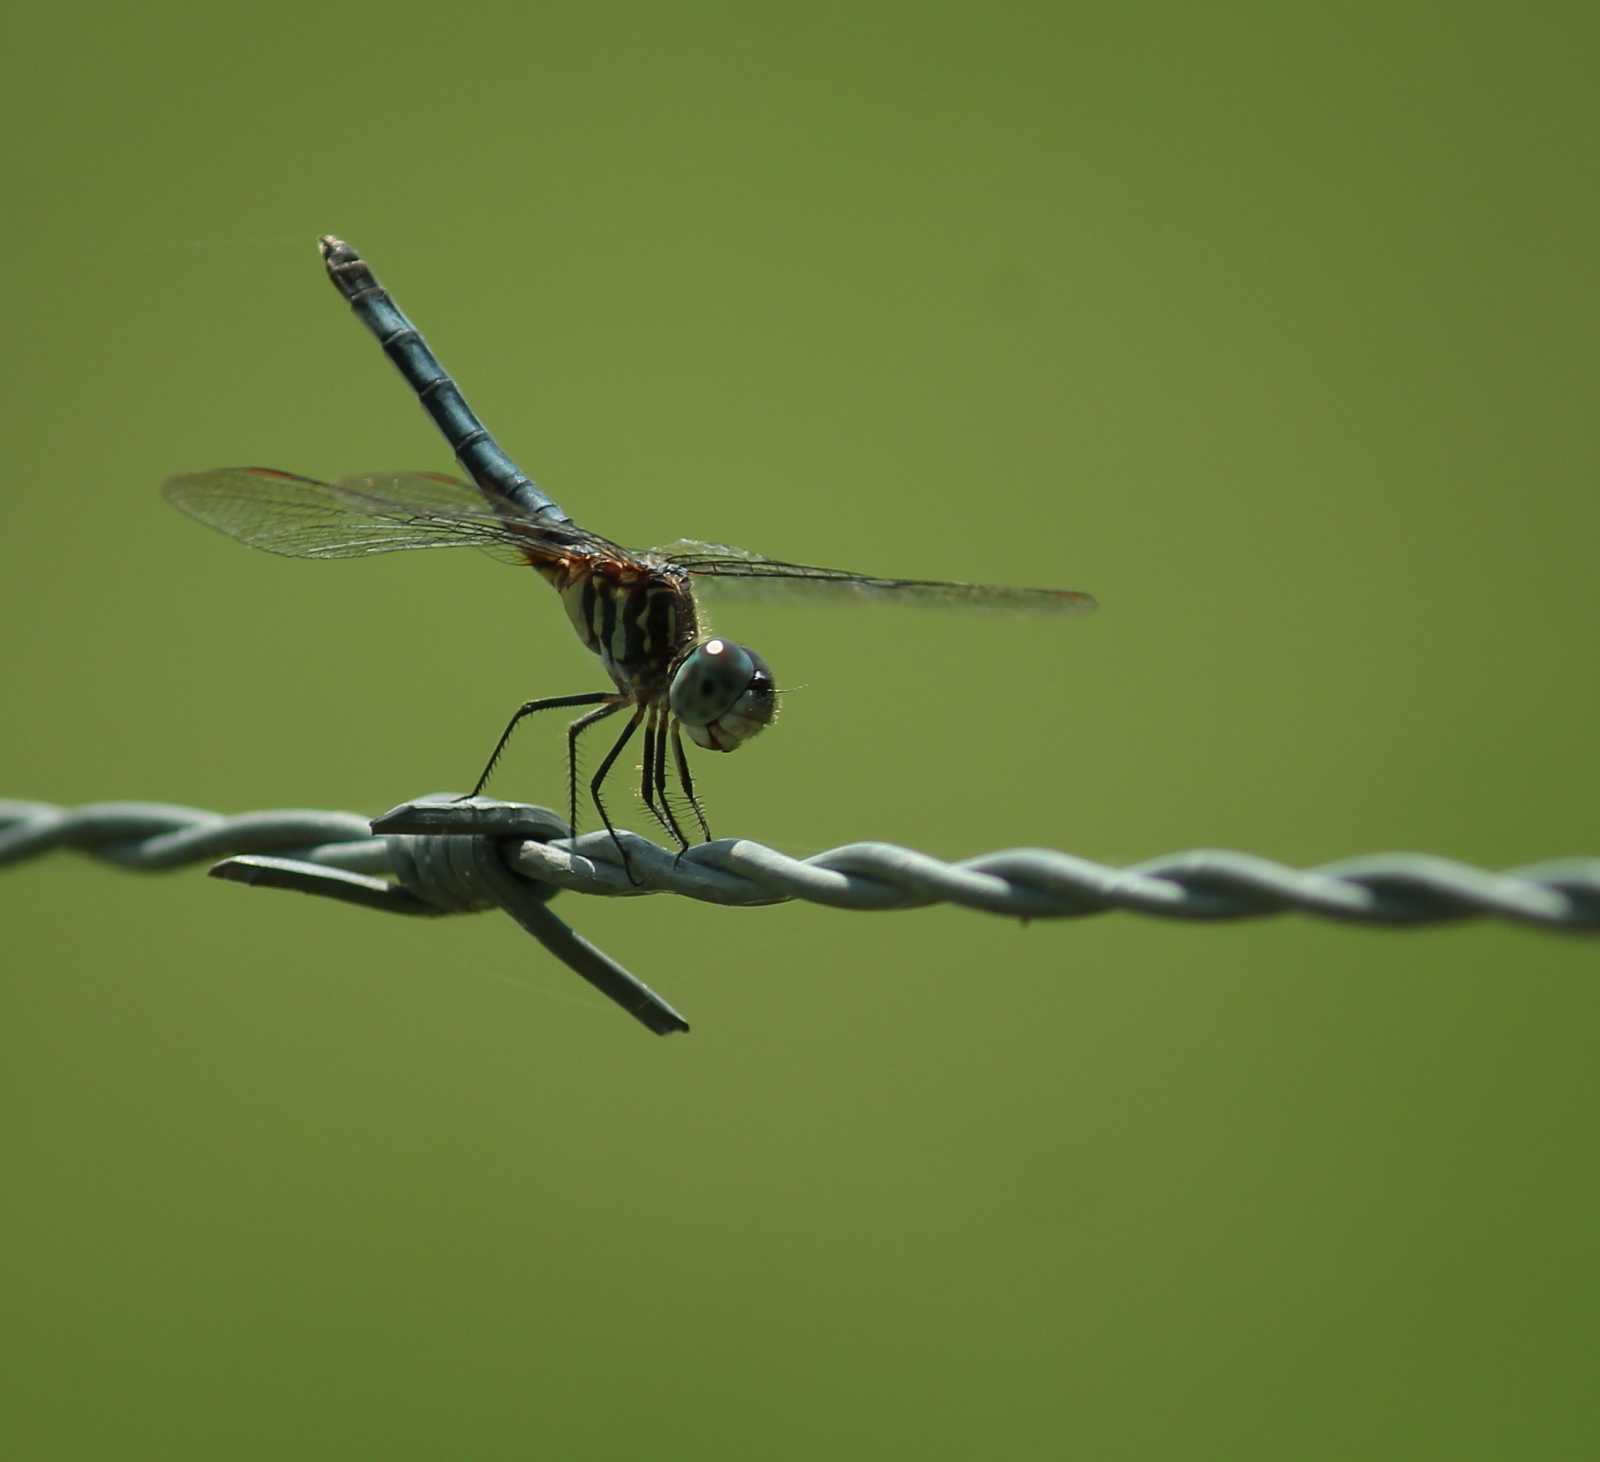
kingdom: Animalia
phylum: Arthropoda
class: Insecta
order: Odonata
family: Libellulidae
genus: Pachydiplax
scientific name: Pachydiplax longipennis
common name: Blue dasher
